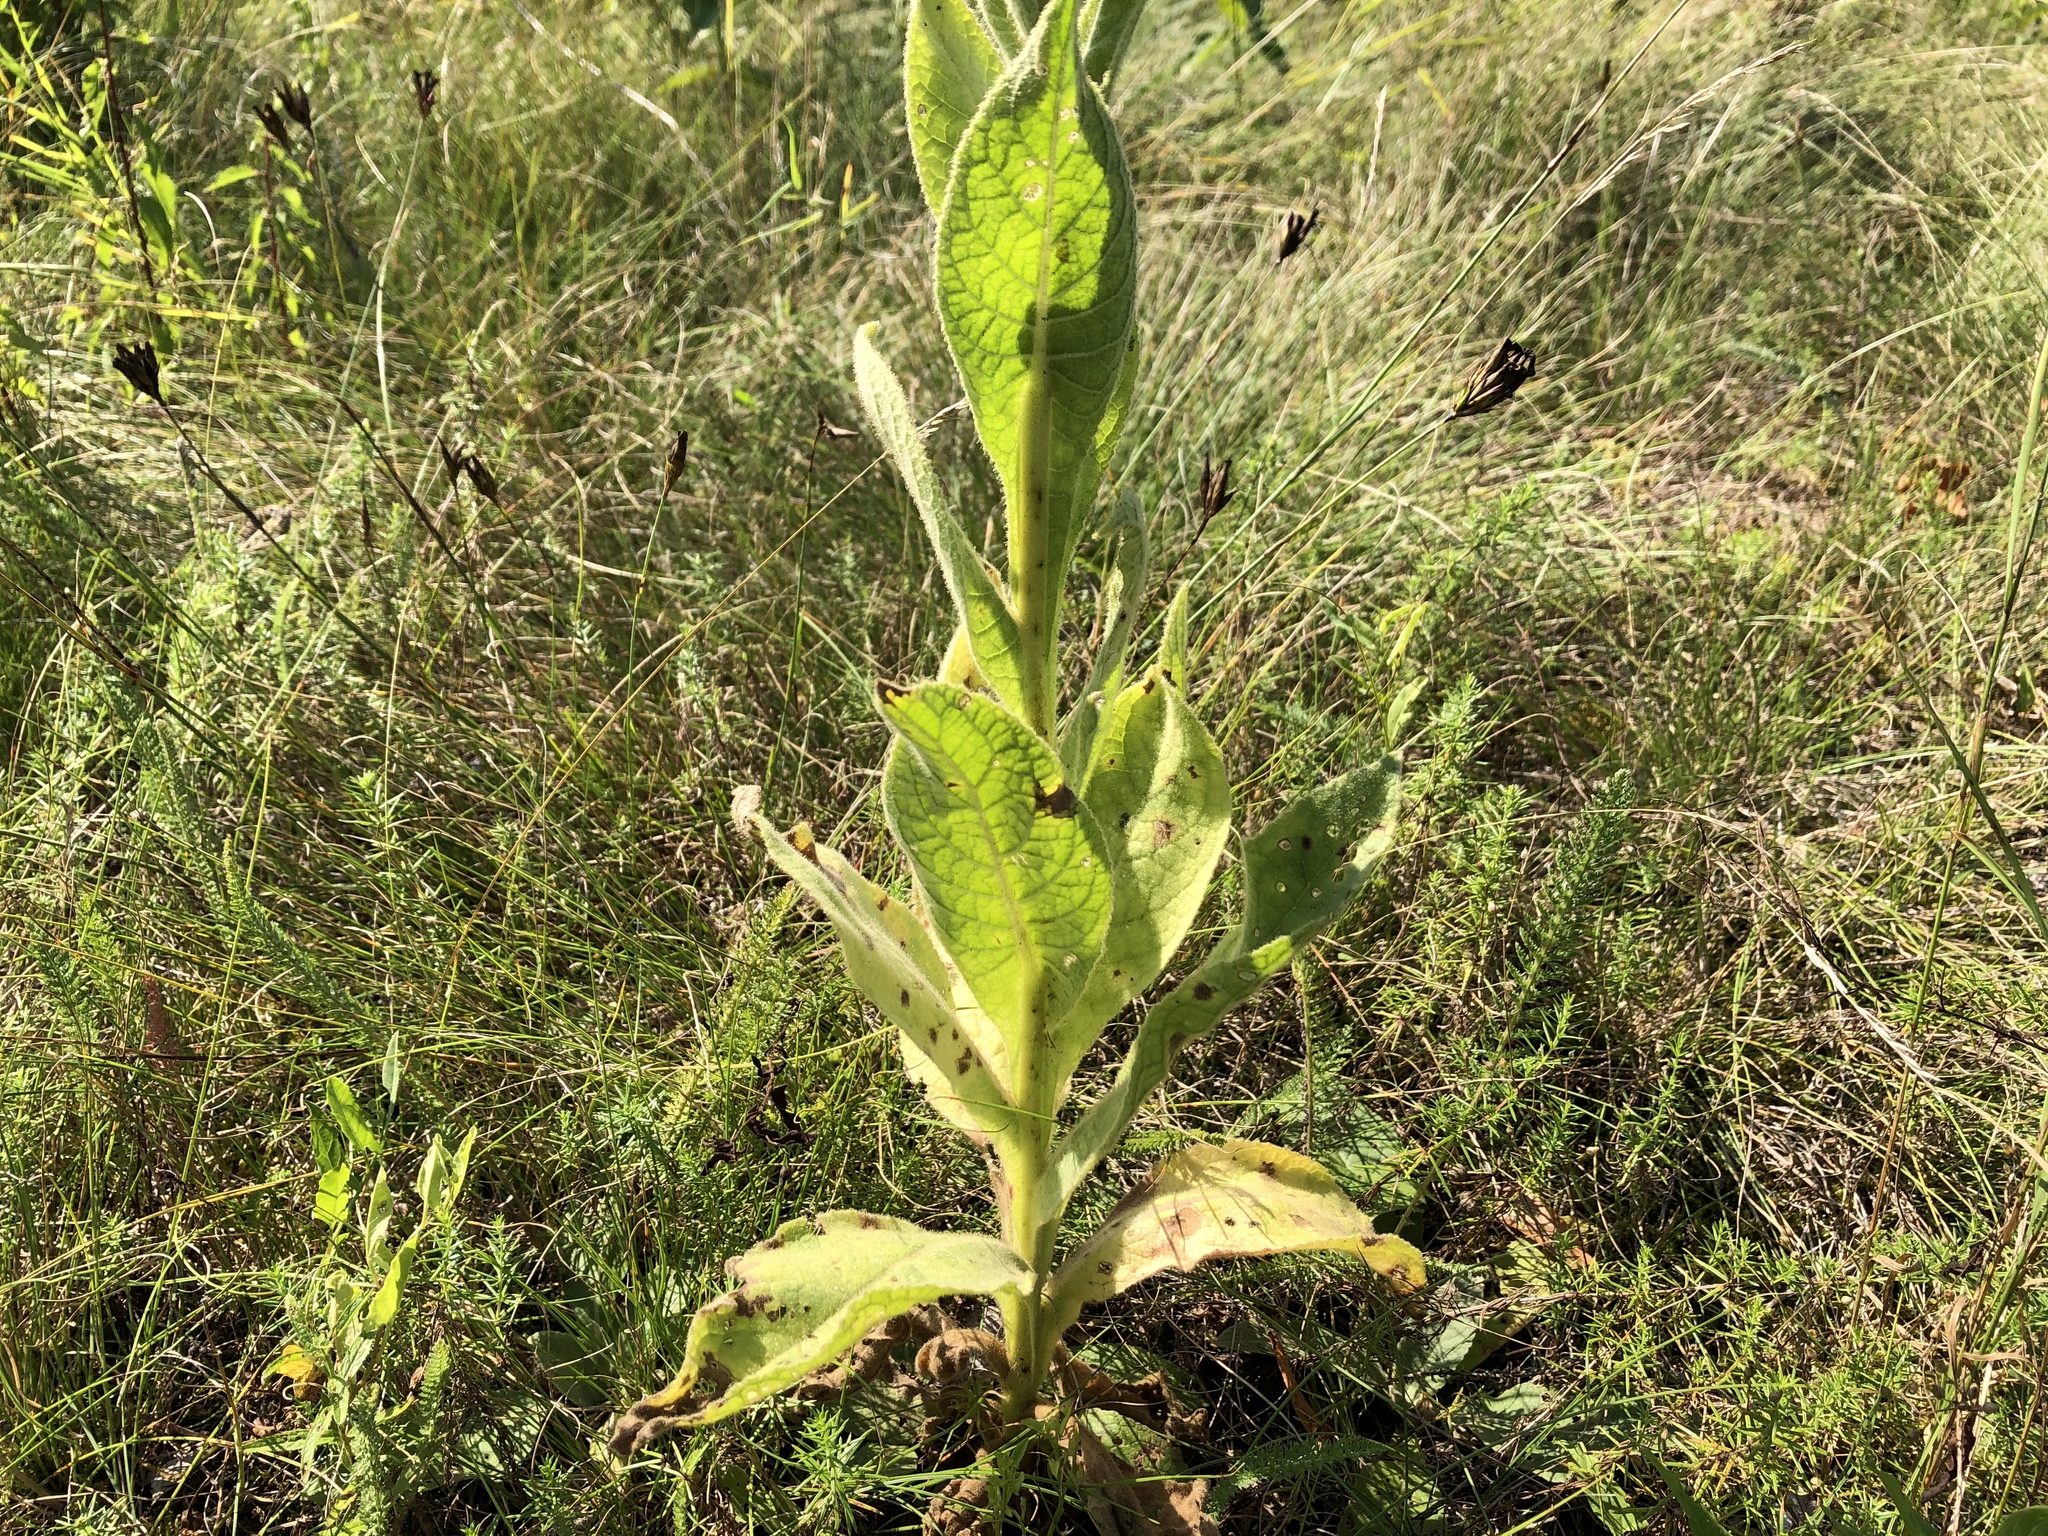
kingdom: Plantae
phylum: Tracheophyta
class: Magnoliopsida
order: Lamiales
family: Scrophulariaceae
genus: Verbascum
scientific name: Verbascum thapsus
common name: Common mullein
